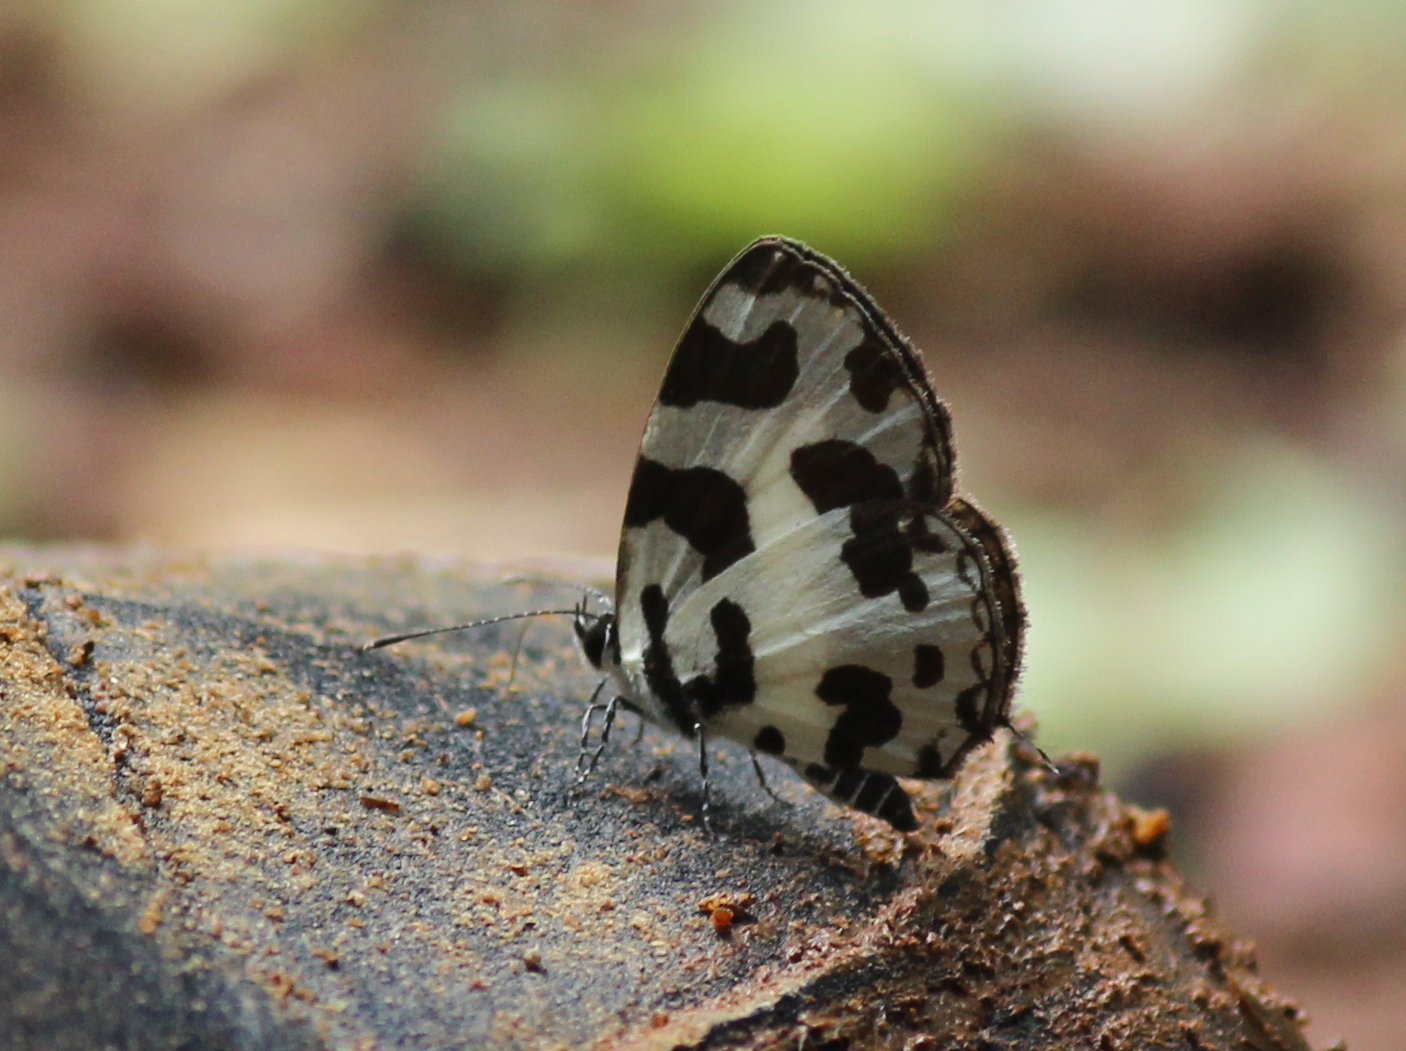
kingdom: Animalia
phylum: Arthropoda
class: Insecta
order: Lepidoptera
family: Lycaenidae
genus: Caleta
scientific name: Caleta decidia
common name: Angled pierrot
